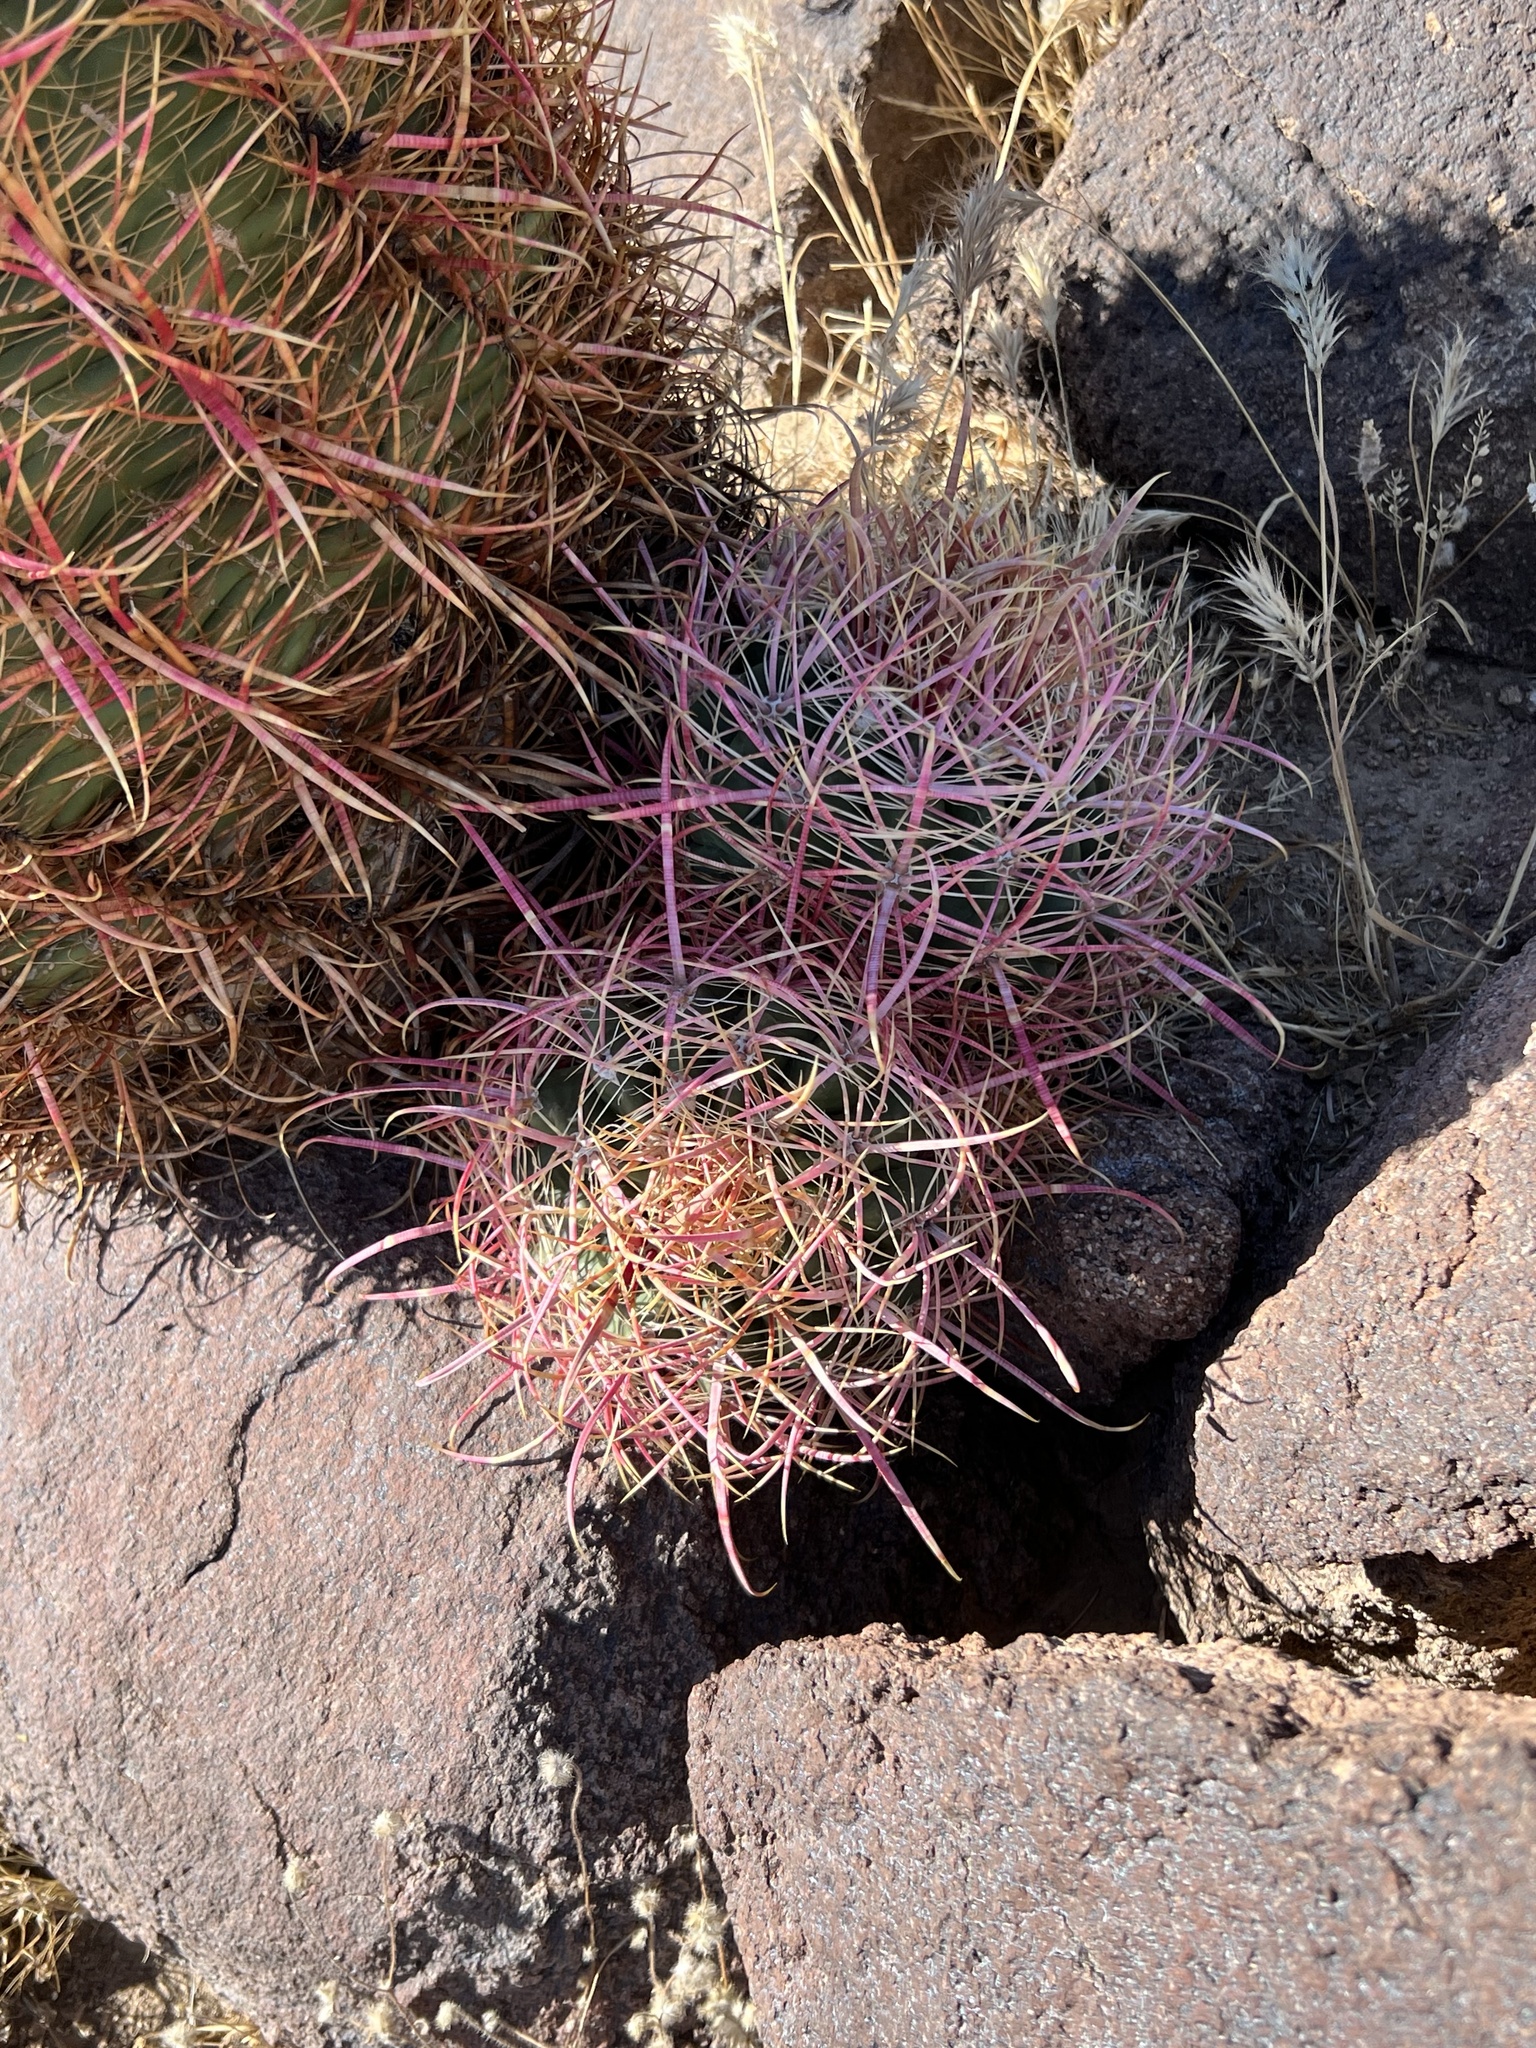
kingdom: Plantae
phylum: Tracheophyta
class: Magnoliopsida
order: Caryophyllales
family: Cactaceae
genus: Ferocactus
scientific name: Ferocactus cylindraceus
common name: California barrel cactus
